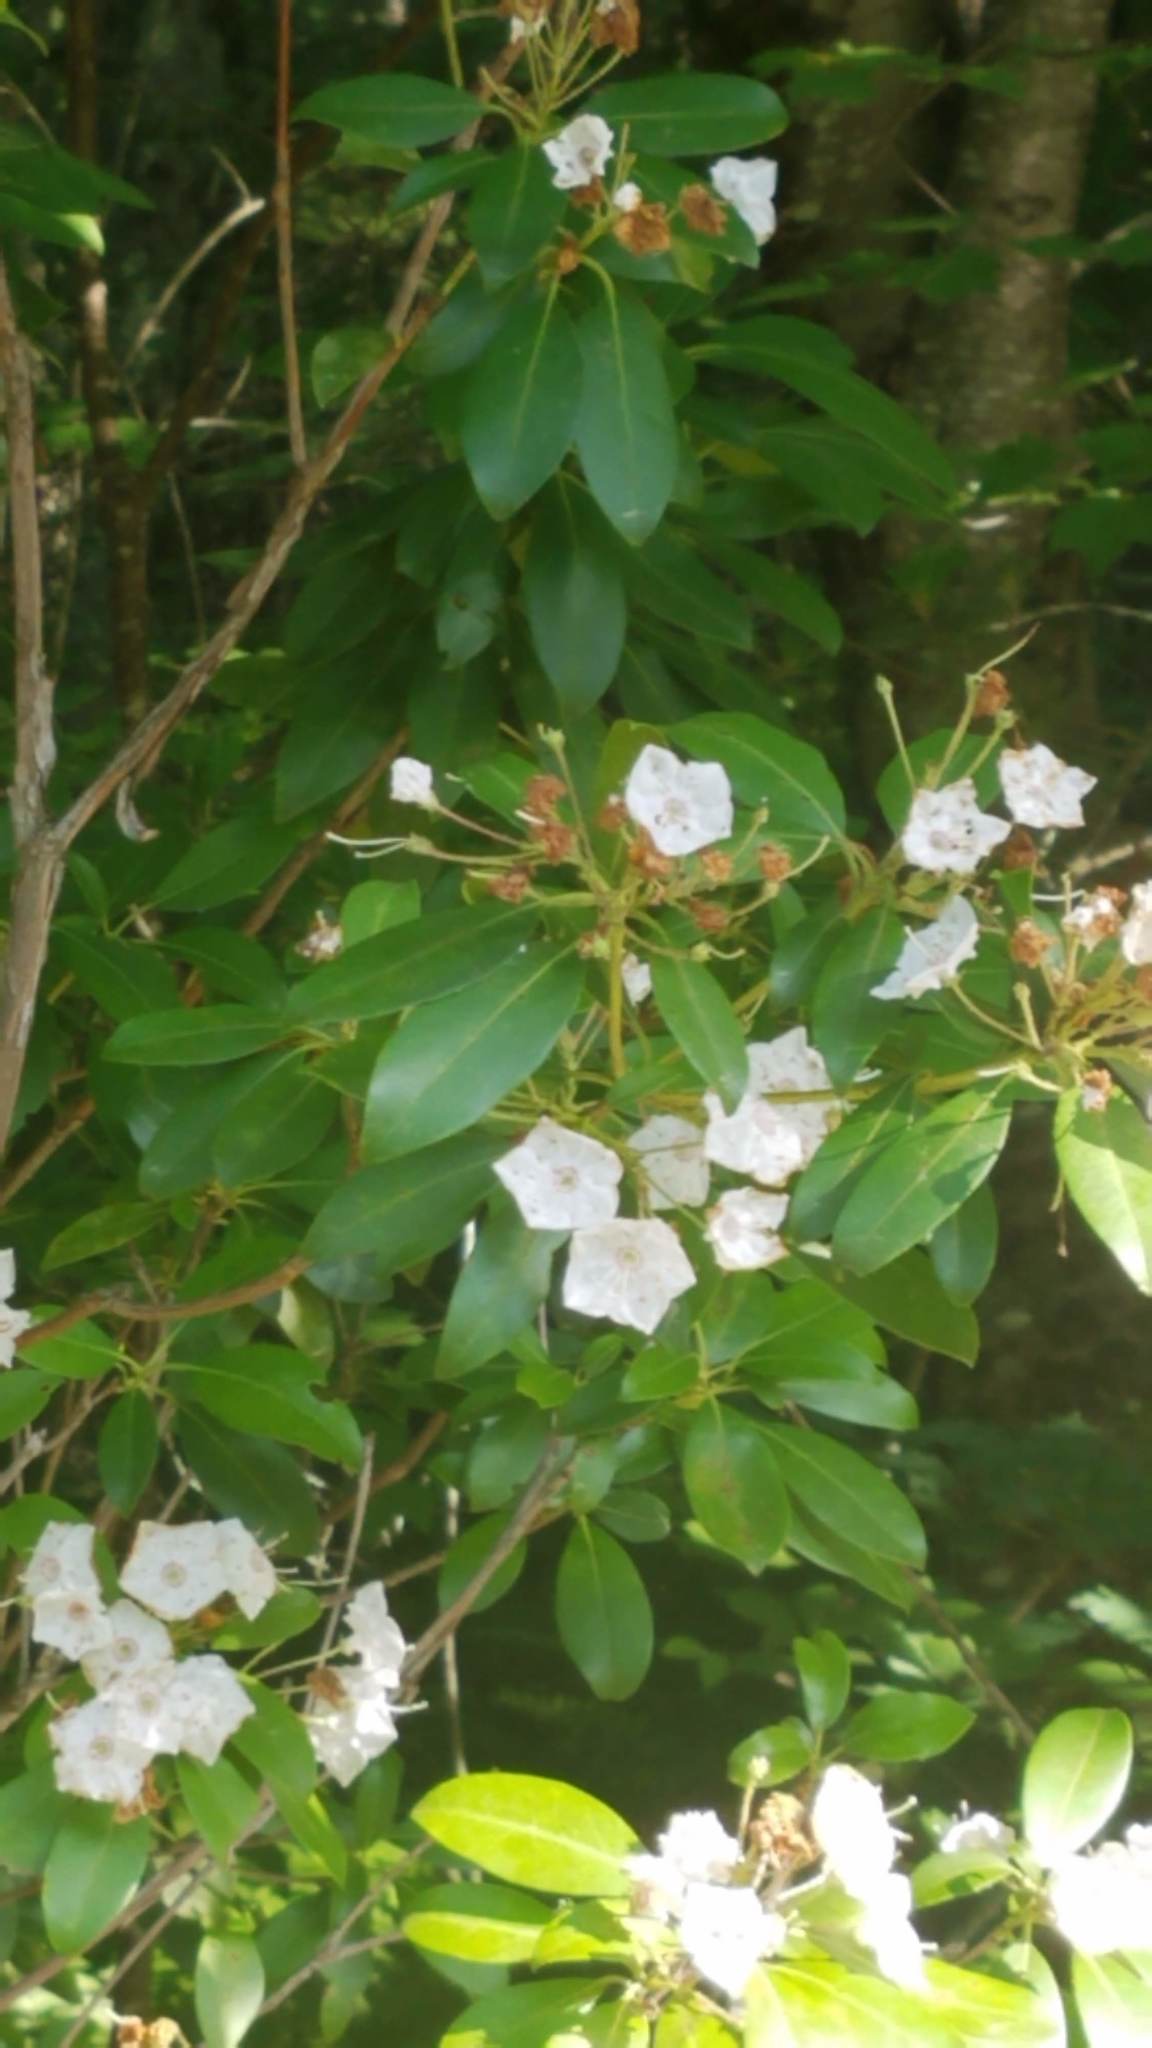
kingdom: Plantae
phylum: Tracheophyta
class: Magnoliopsida
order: Ericales
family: Ericaceae
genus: Kalmia
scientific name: Kalmia latifolia
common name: Mountain-laurel
